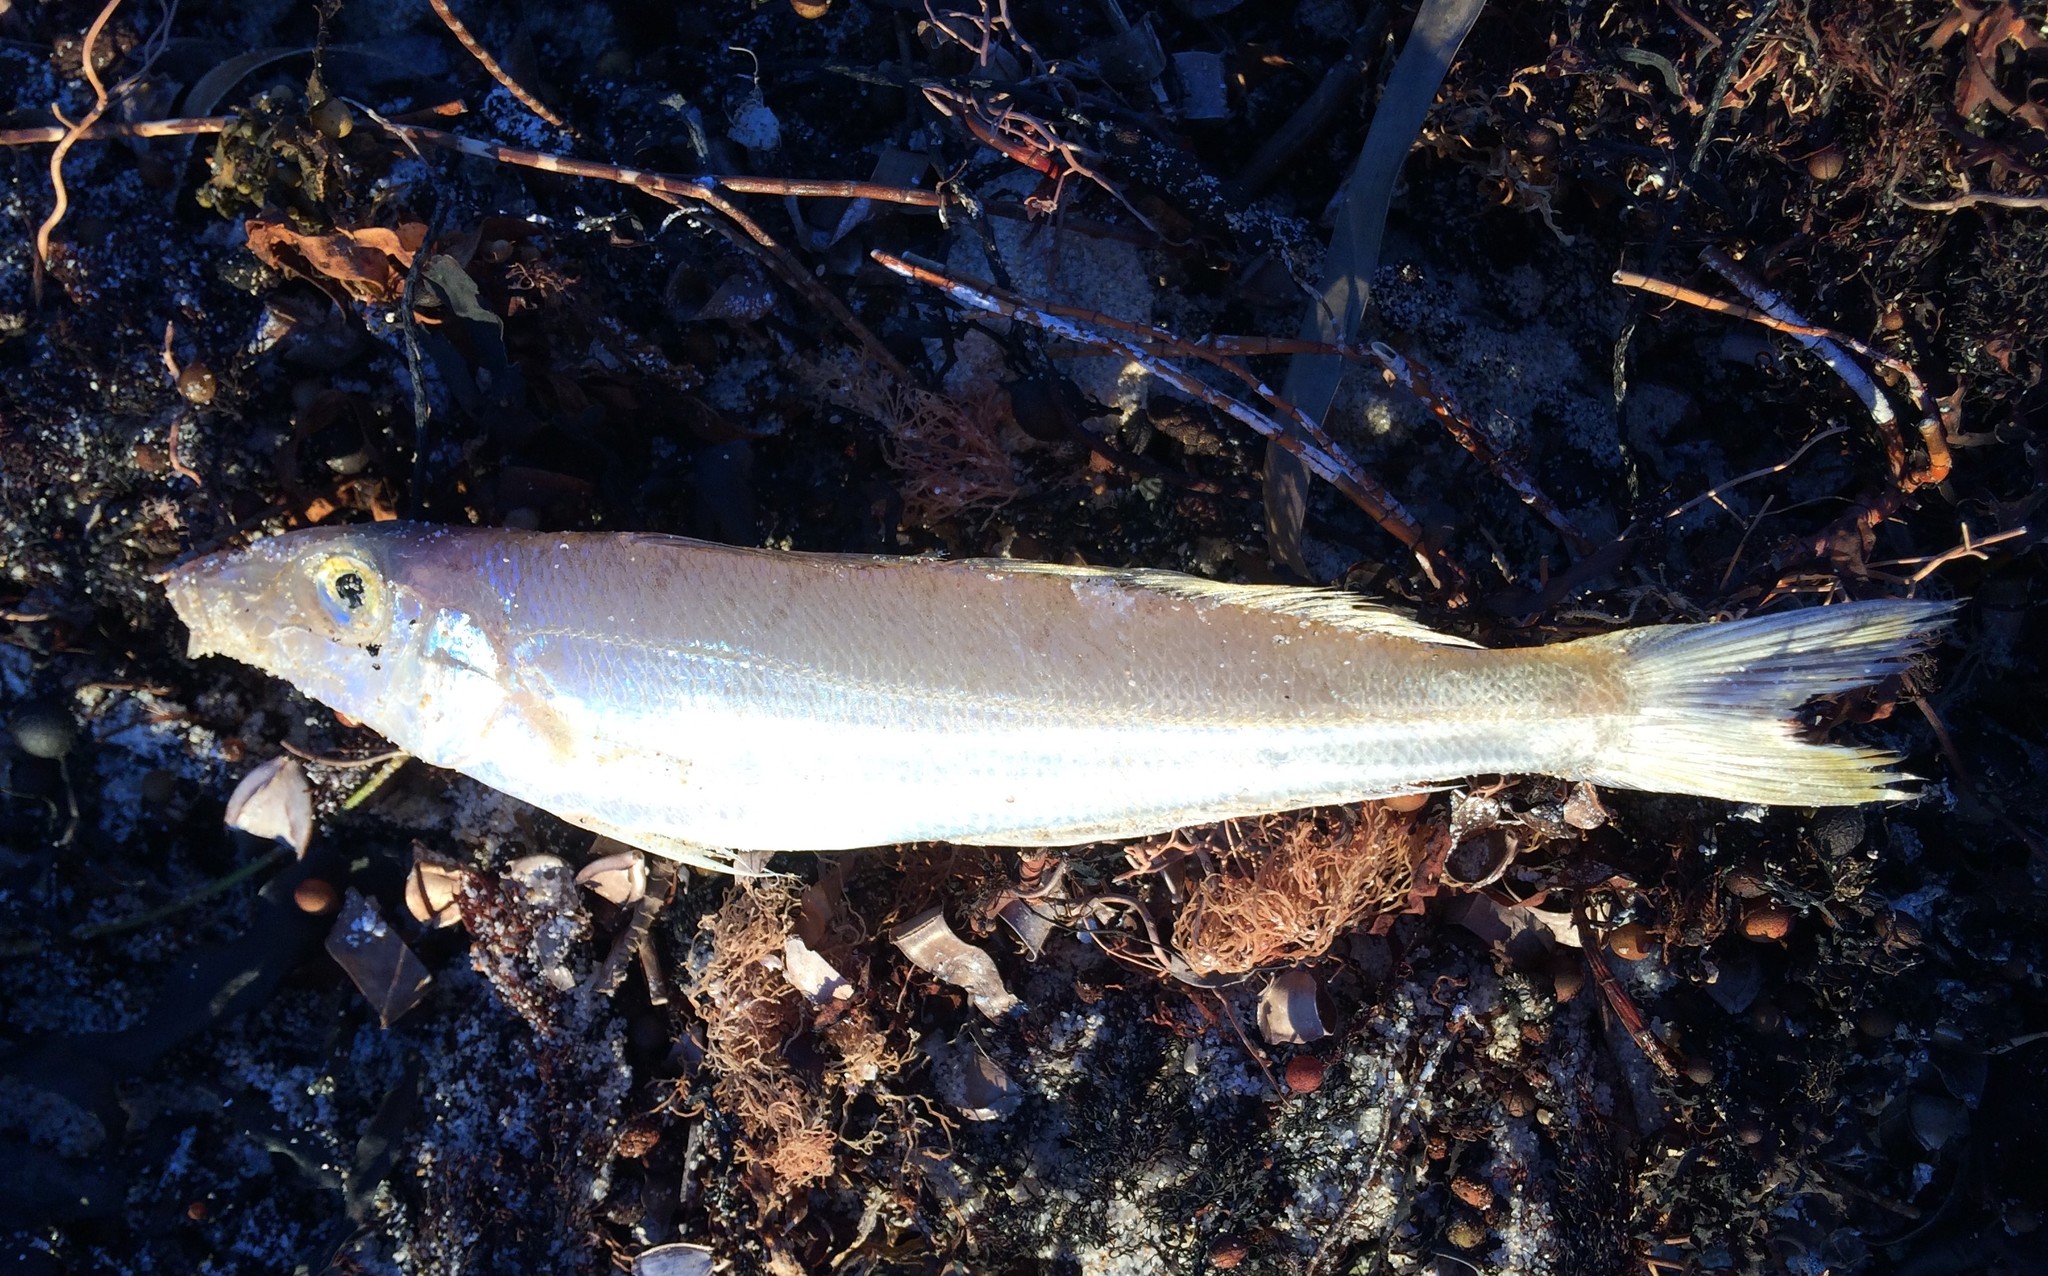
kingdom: Animalia
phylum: Chordata
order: Perciformes
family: Sillaginidae
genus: Sillago
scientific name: Sillago schomburgkii
